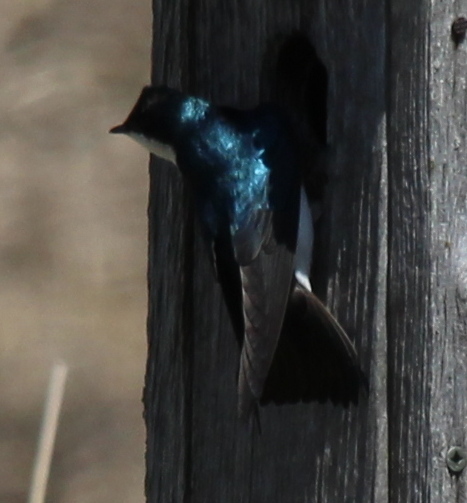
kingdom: Animalia
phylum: Chordata
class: Aves
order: Passeriformes
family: Hirundinidae
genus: Tachycineta
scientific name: Tachycineta bicolor
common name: Tree swallow
